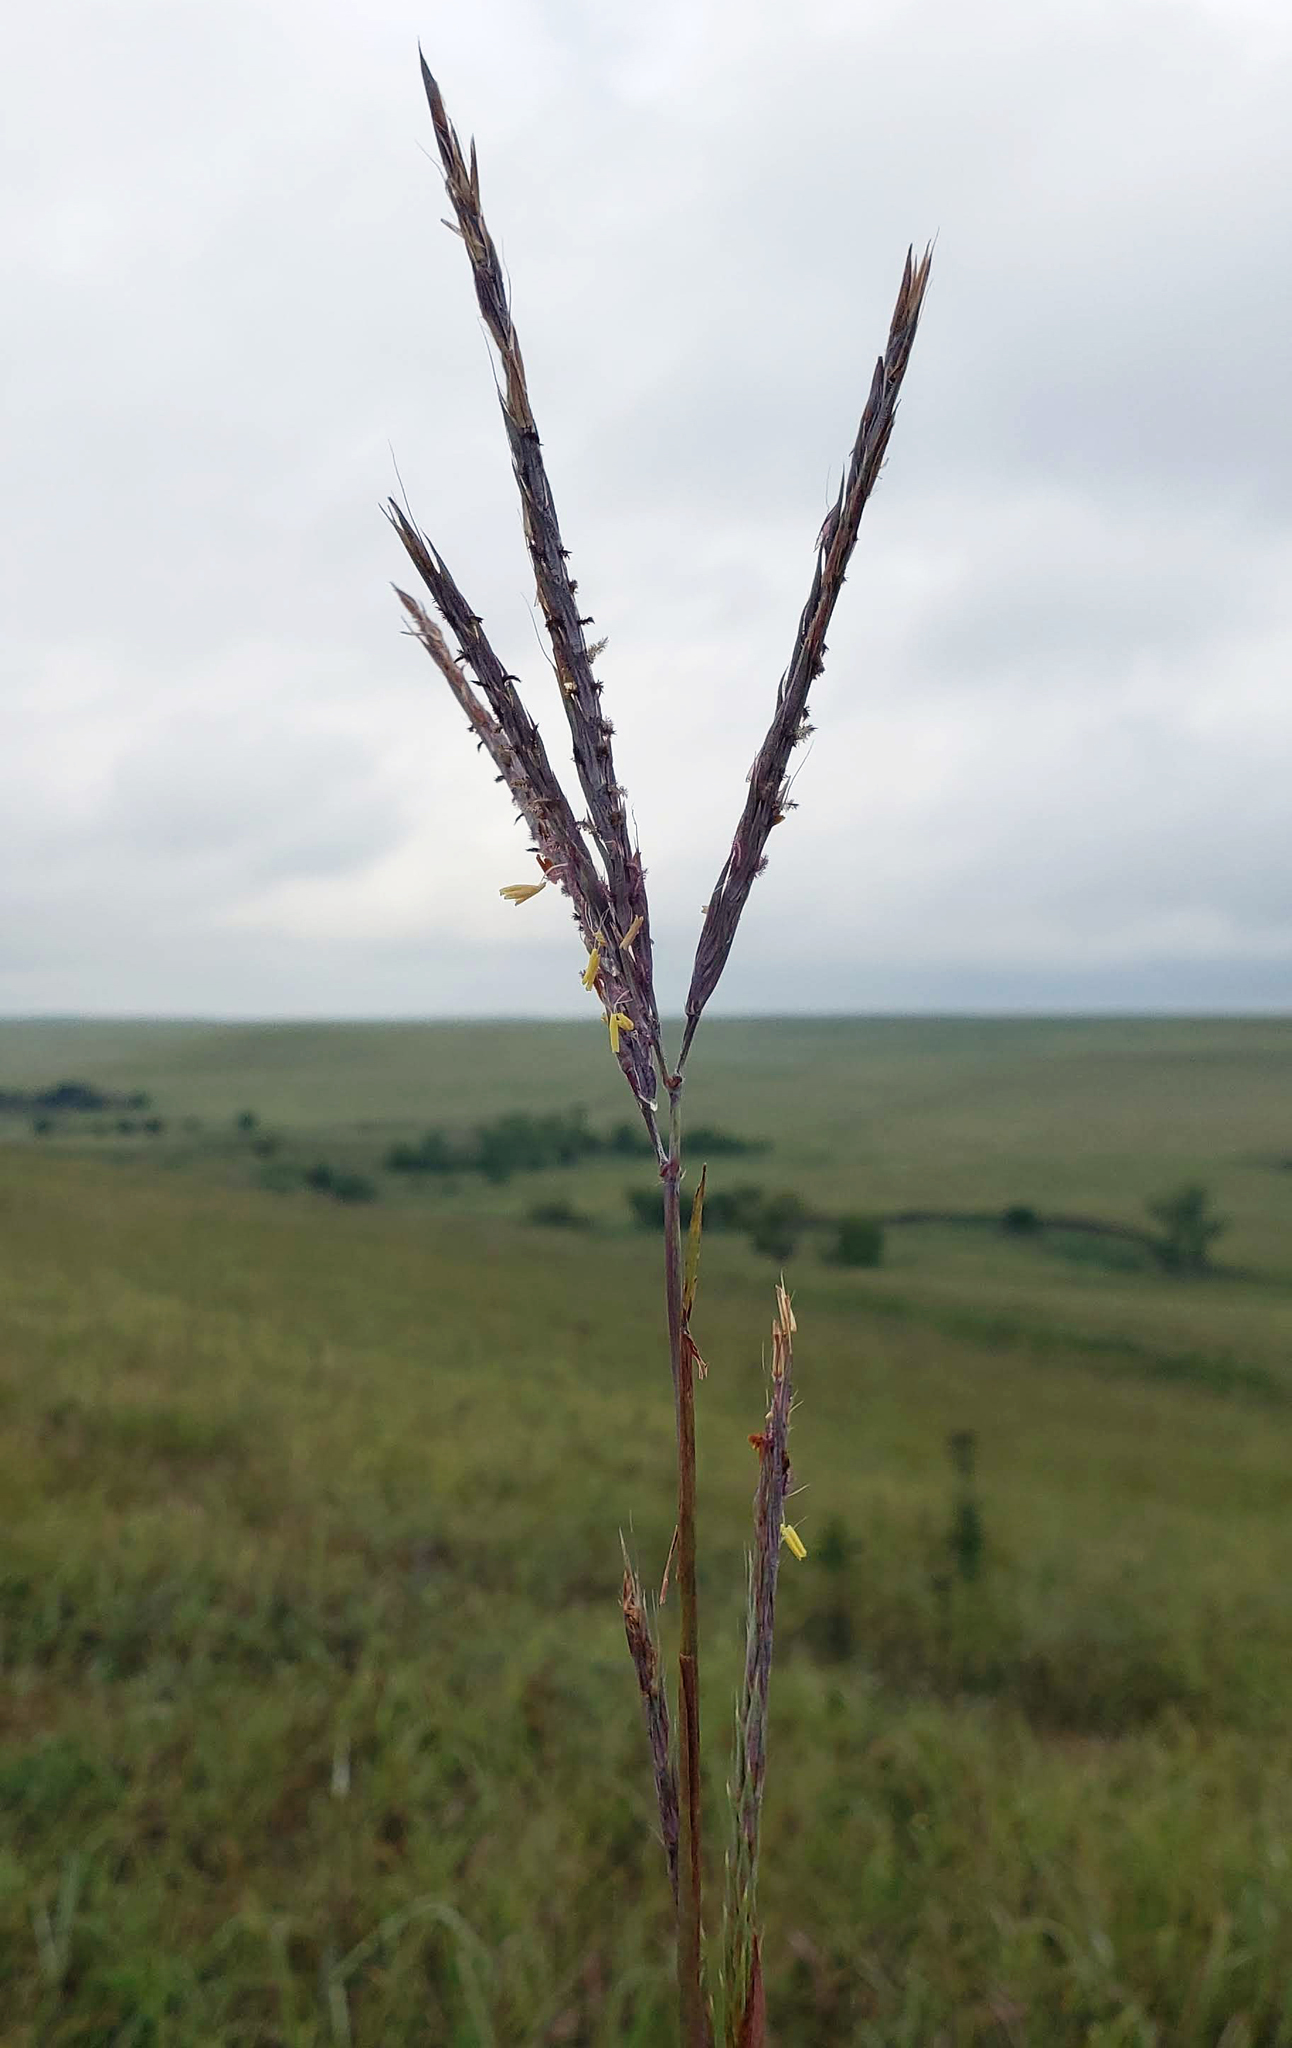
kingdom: Plantae
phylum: Tracheophyta
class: Liliopsida
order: Poales
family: Poaceae
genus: Andropogon
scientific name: Andropogon gerardi
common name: Big bluestem
